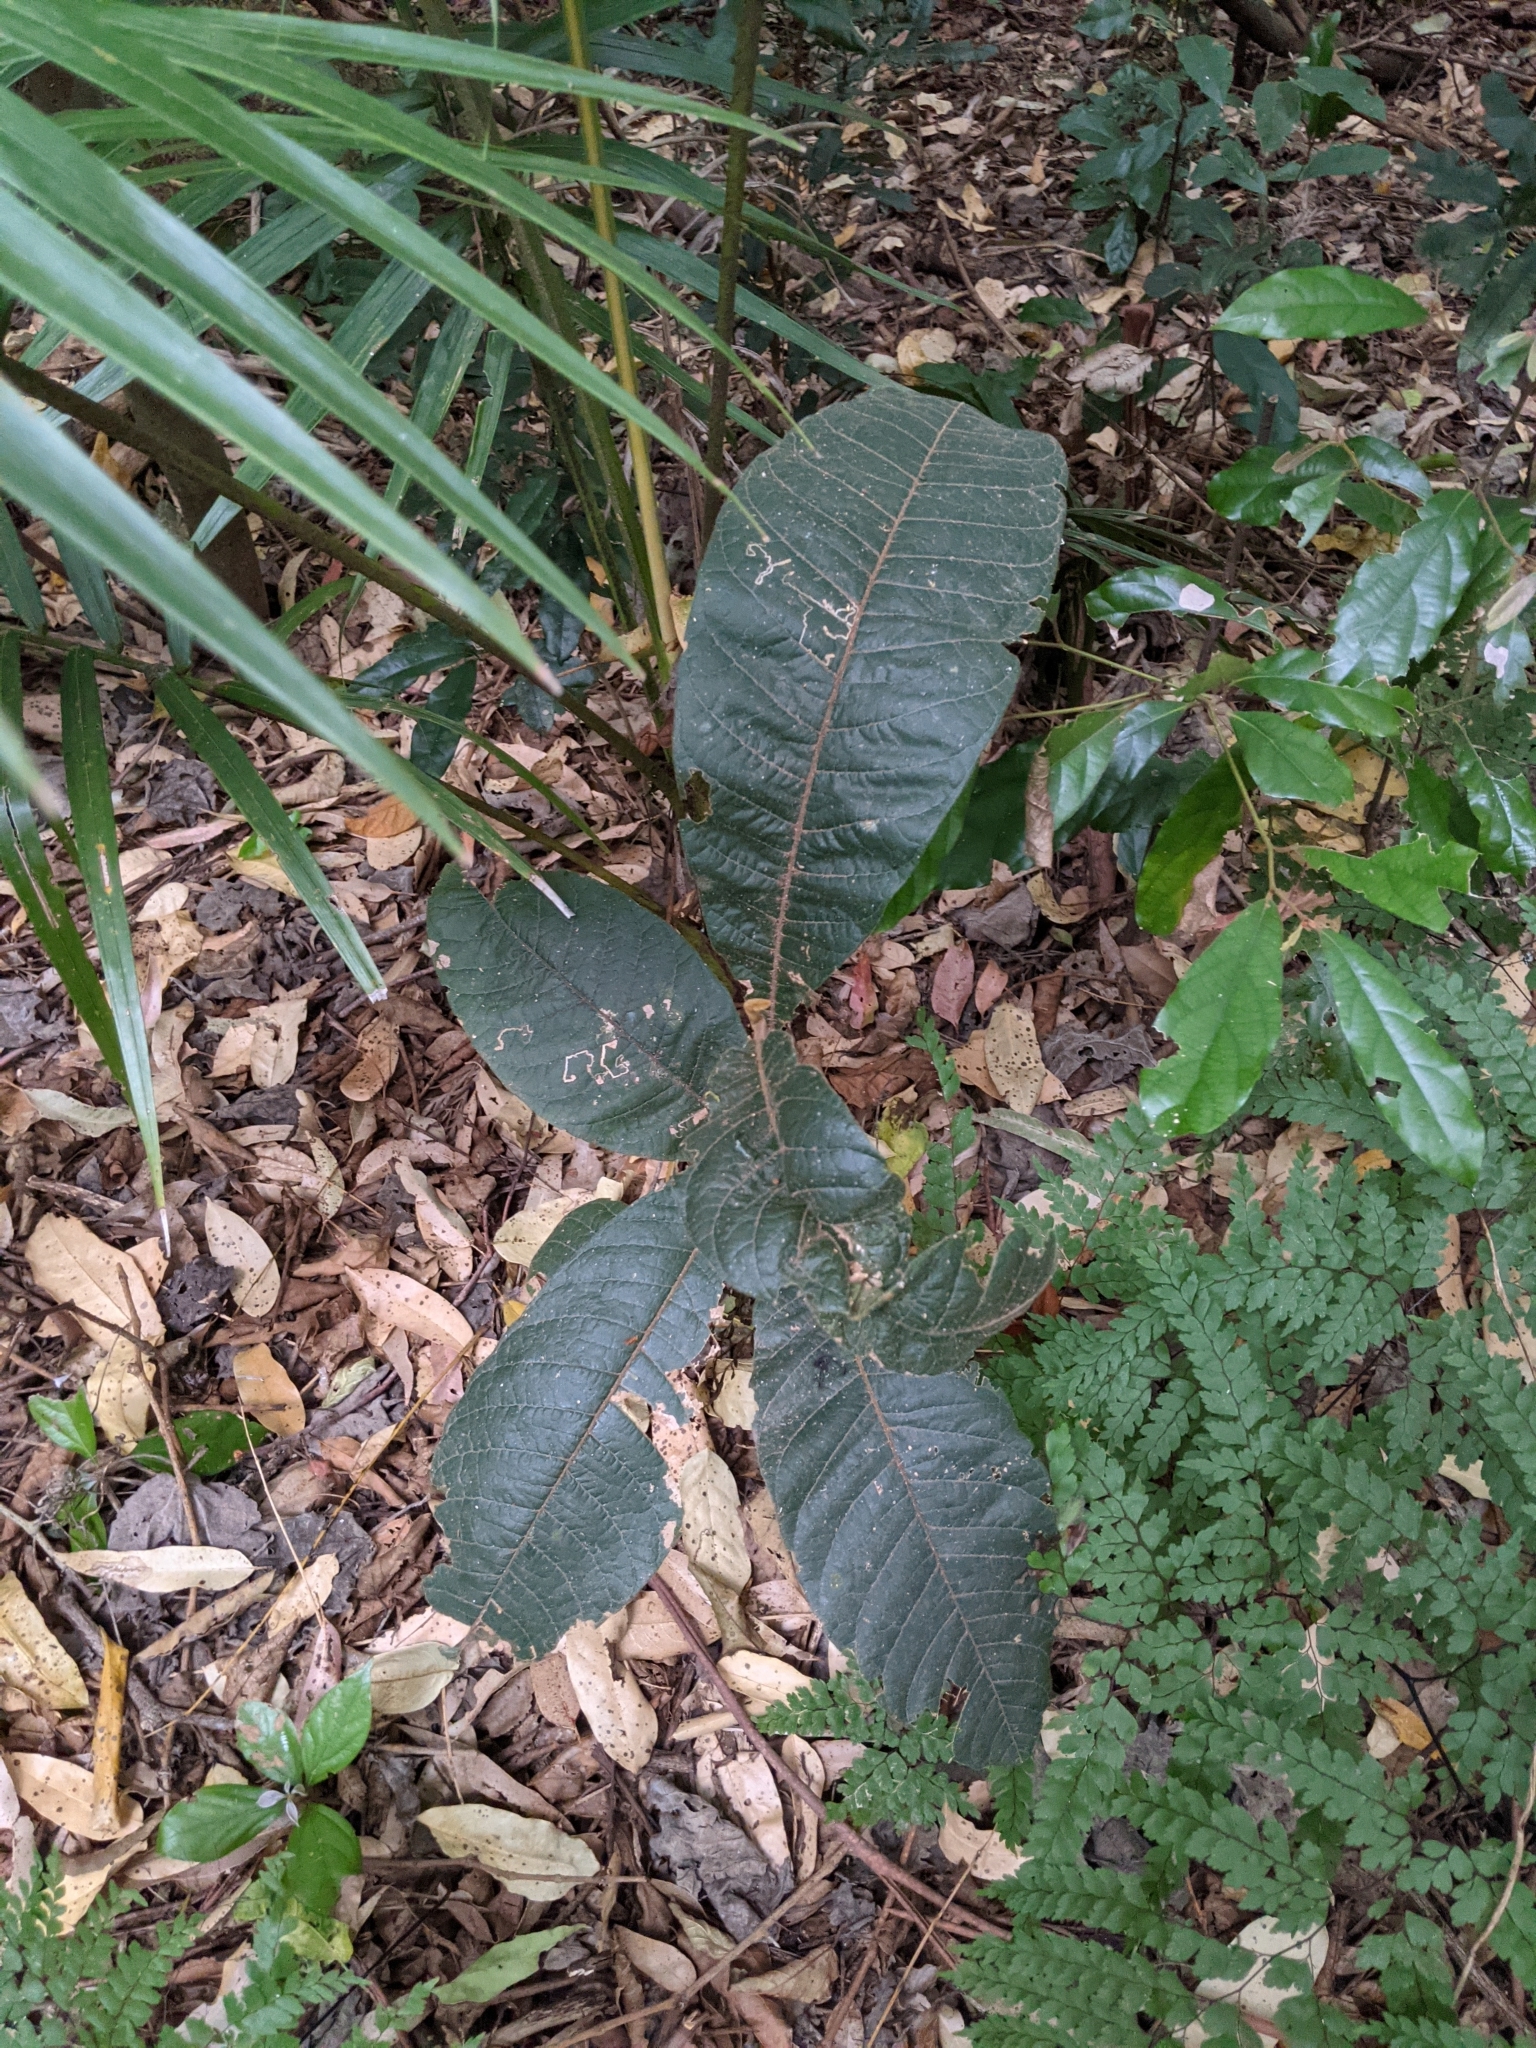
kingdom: Plantae
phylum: Tracheophyta
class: Magnoliopsida
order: Sapindales
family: Sapindaceae
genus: Diploglottis
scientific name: Diploglottis australis
